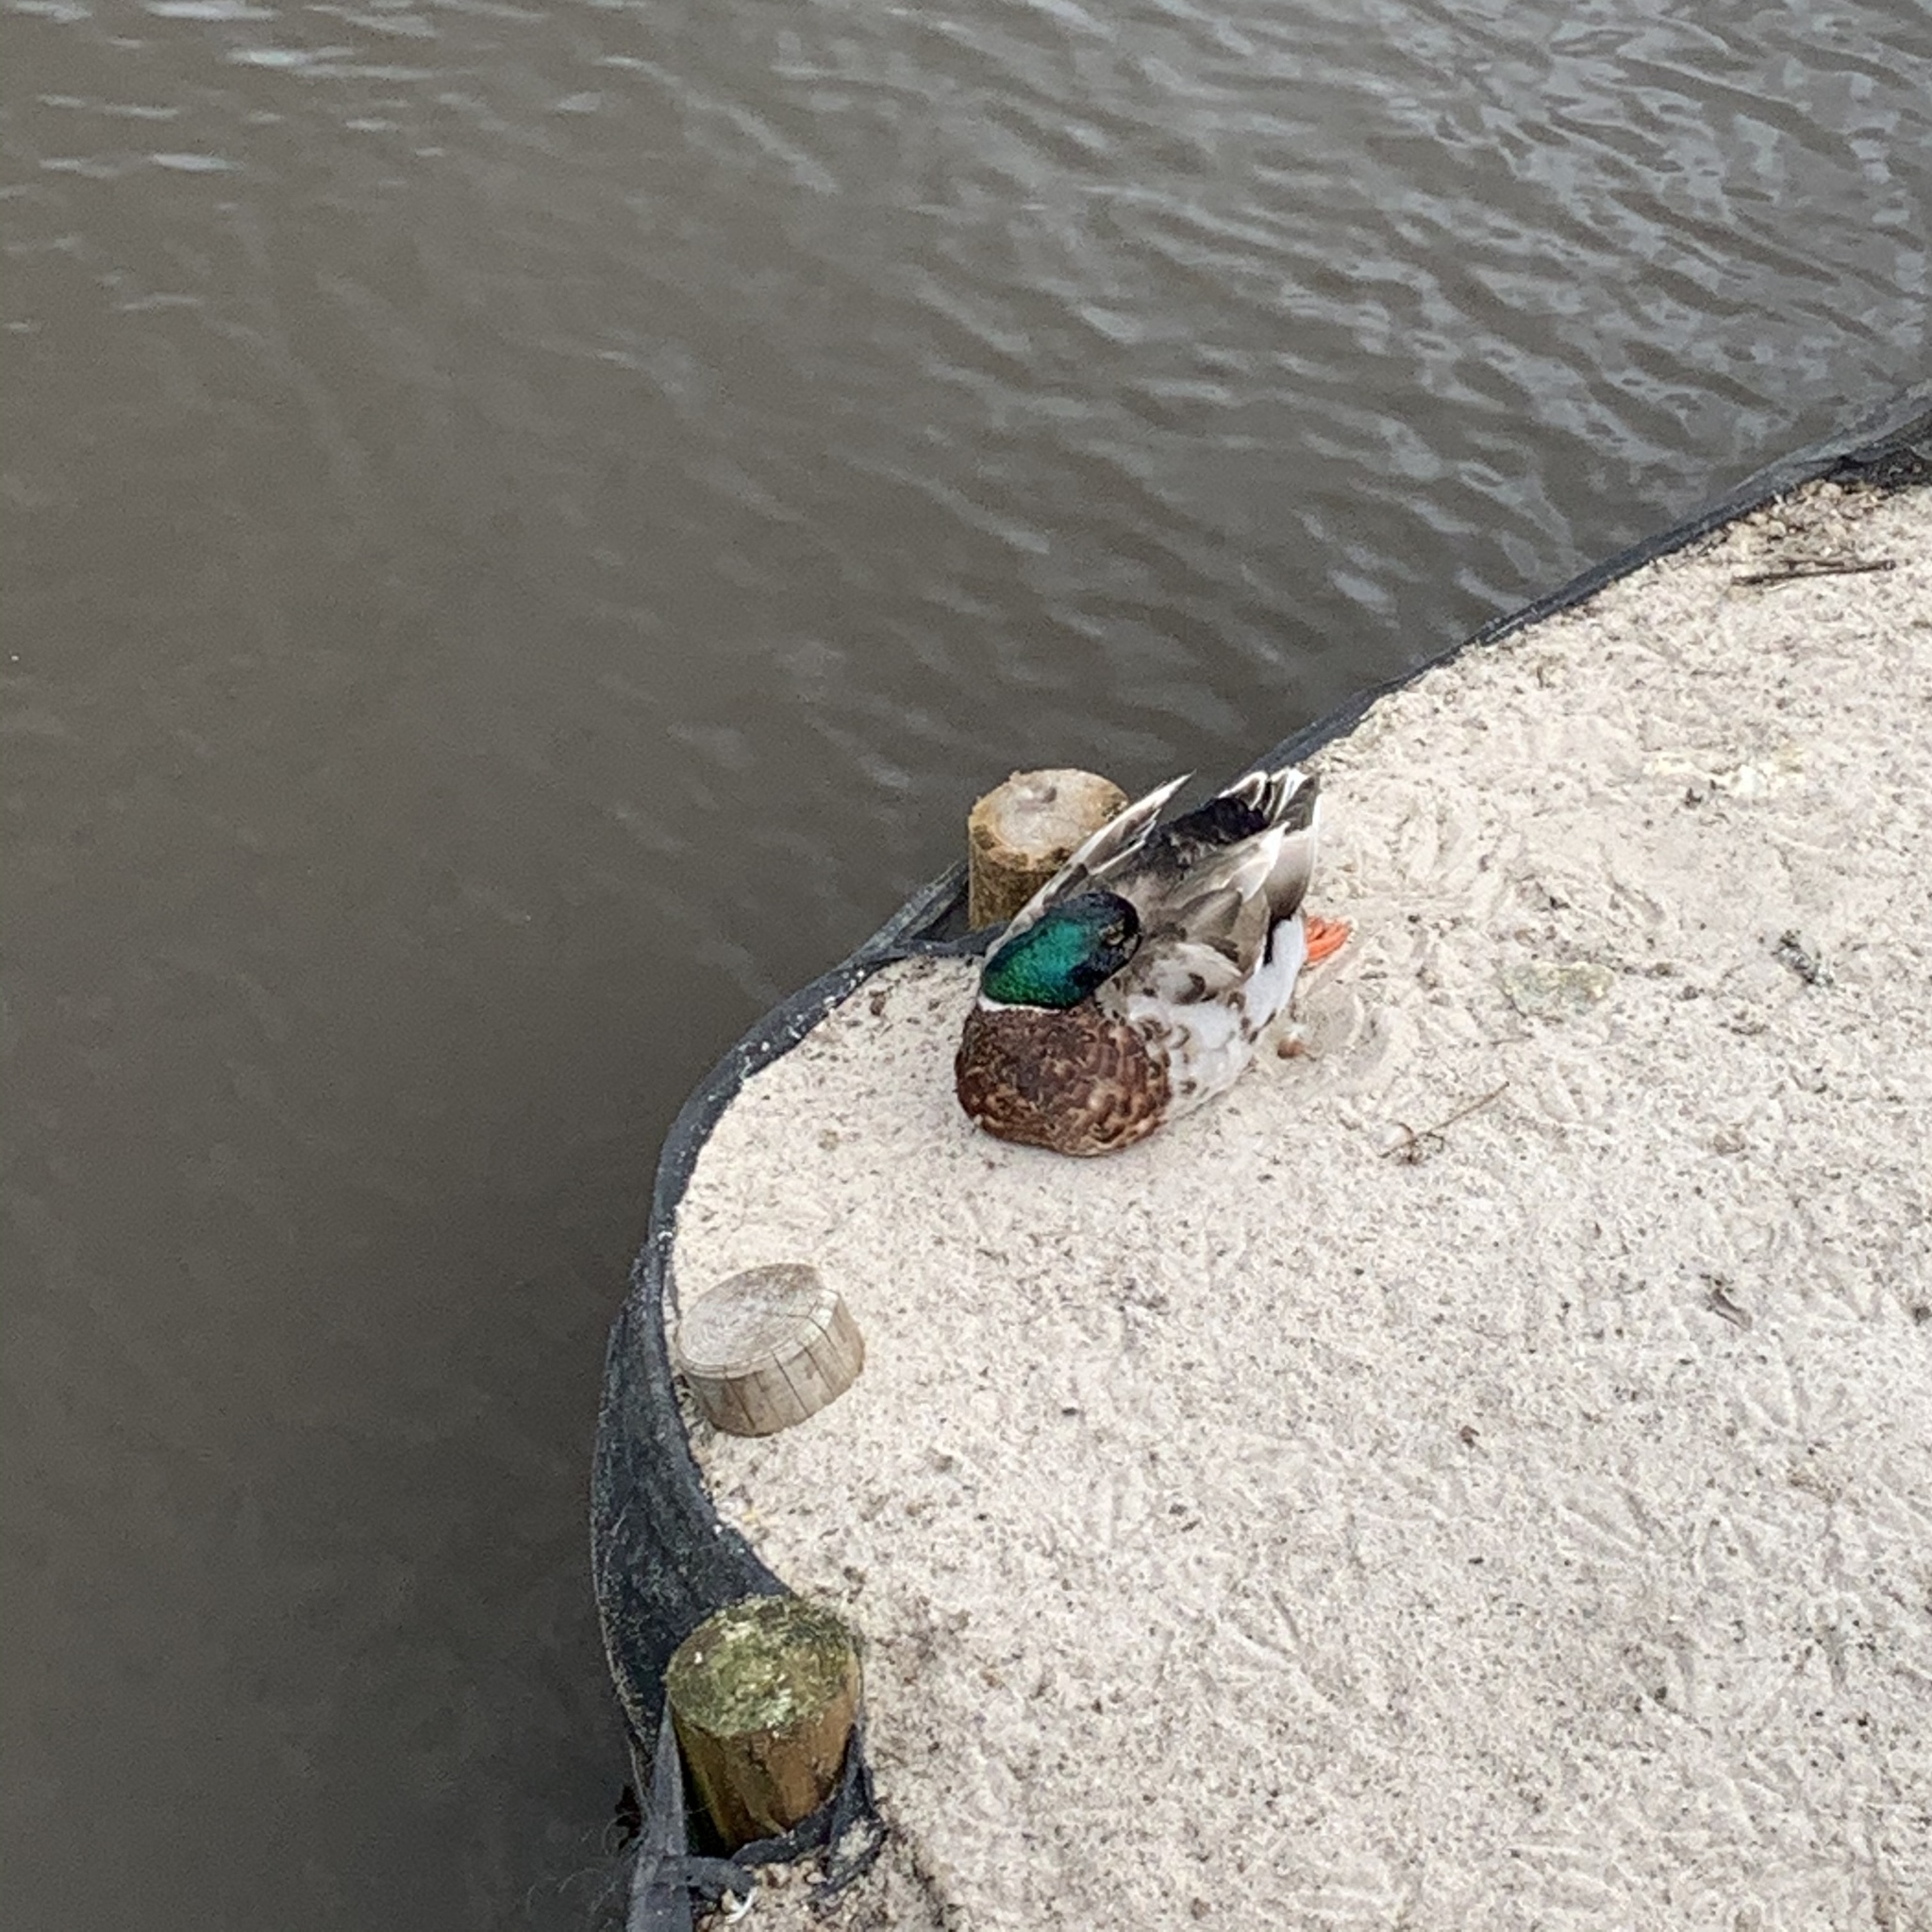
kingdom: Animalia
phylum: Chordata
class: Aves
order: Anseriformes
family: Anatidae
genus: Anas
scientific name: Anas platyrhynchos
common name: Mallard
